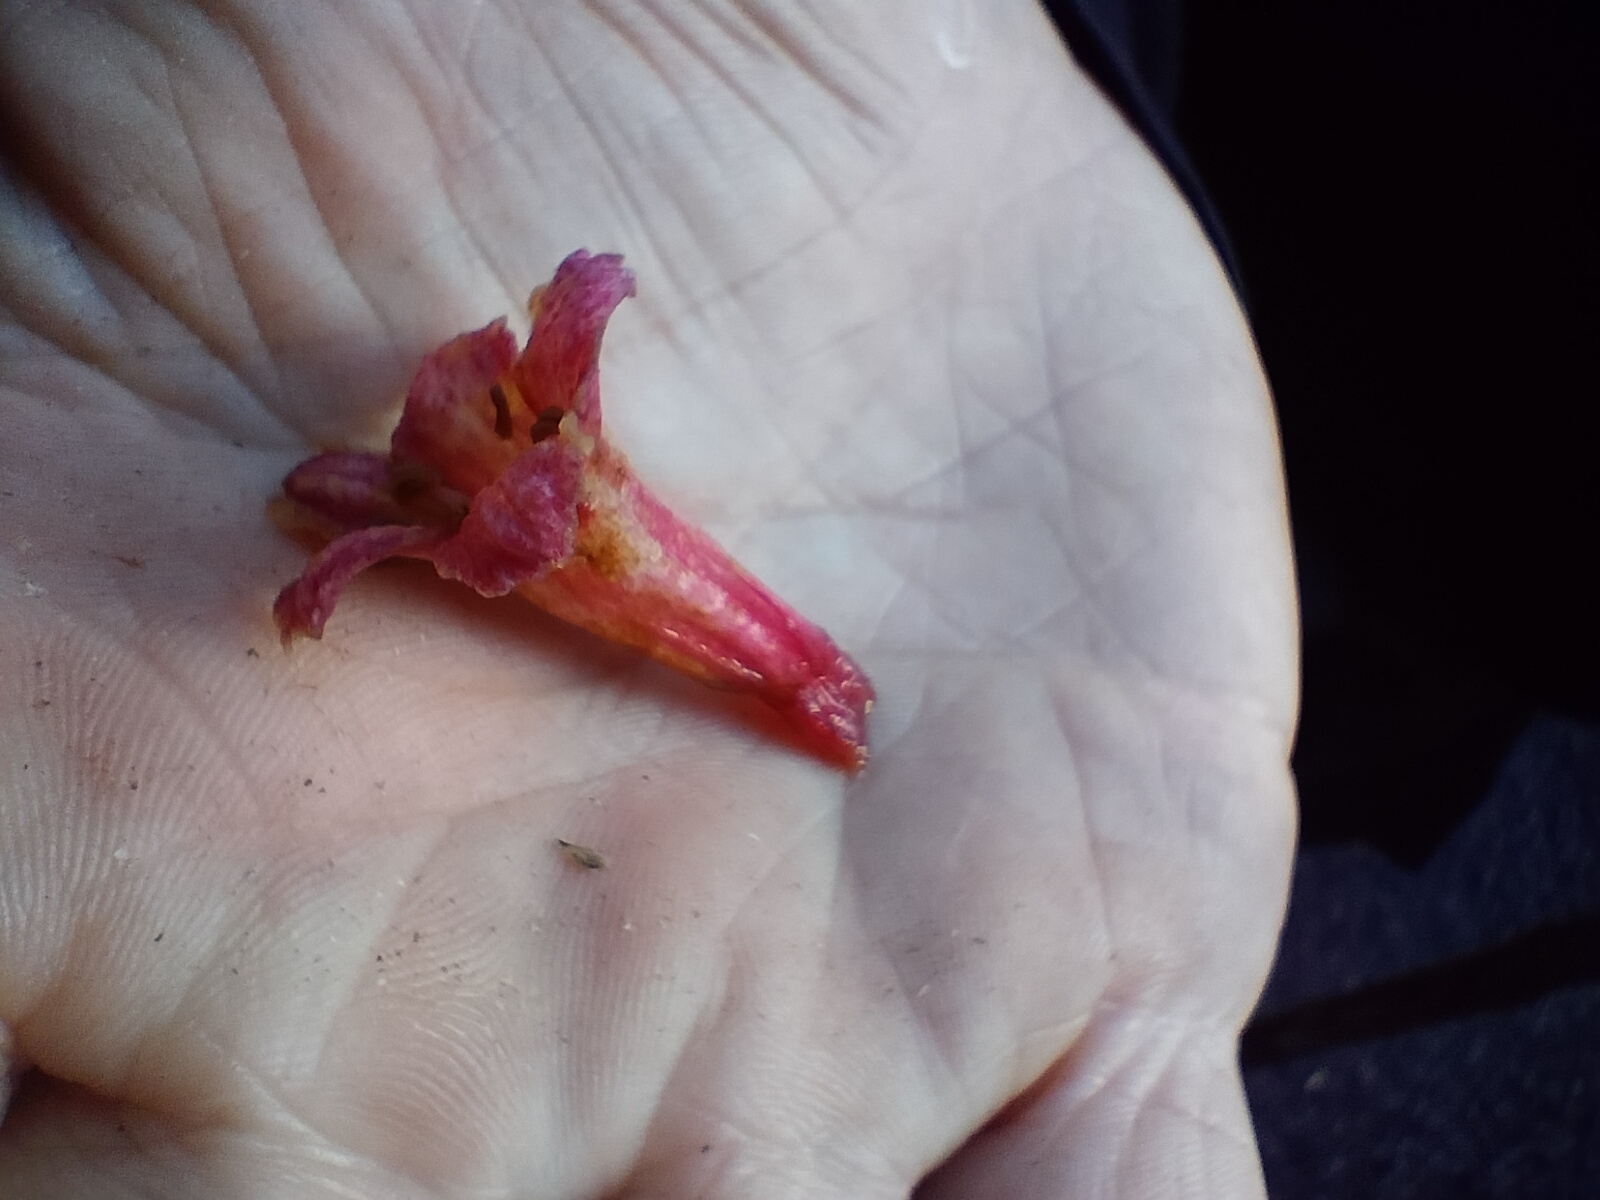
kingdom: Plantae
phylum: Tracheophyta
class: Magnoliopsida
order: Asterales
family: Alseuosmiaceae
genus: Alseuosmia
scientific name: Alseuosmia macrophylla
